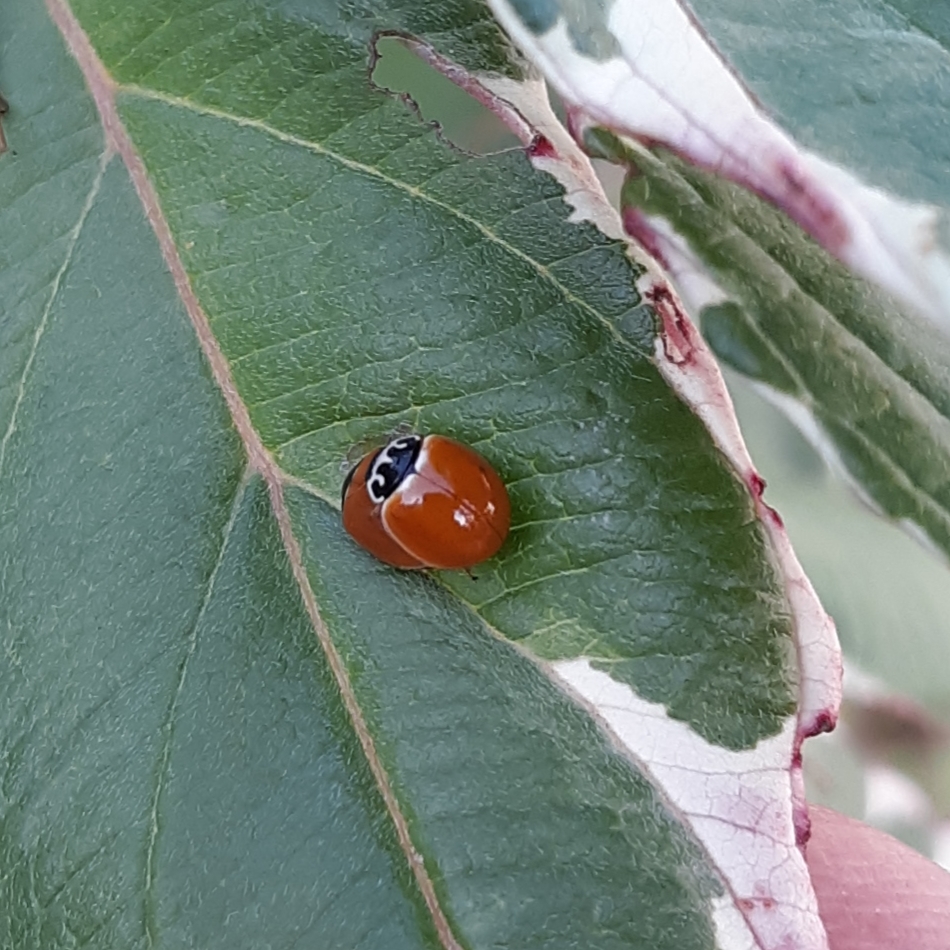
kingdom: Animalia
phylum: Arthropoda
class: Insecta
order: Coleoptera
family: Coccinellidae
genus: Cycloneda
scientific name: Cycloneda munda
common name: Polished lady beetle
